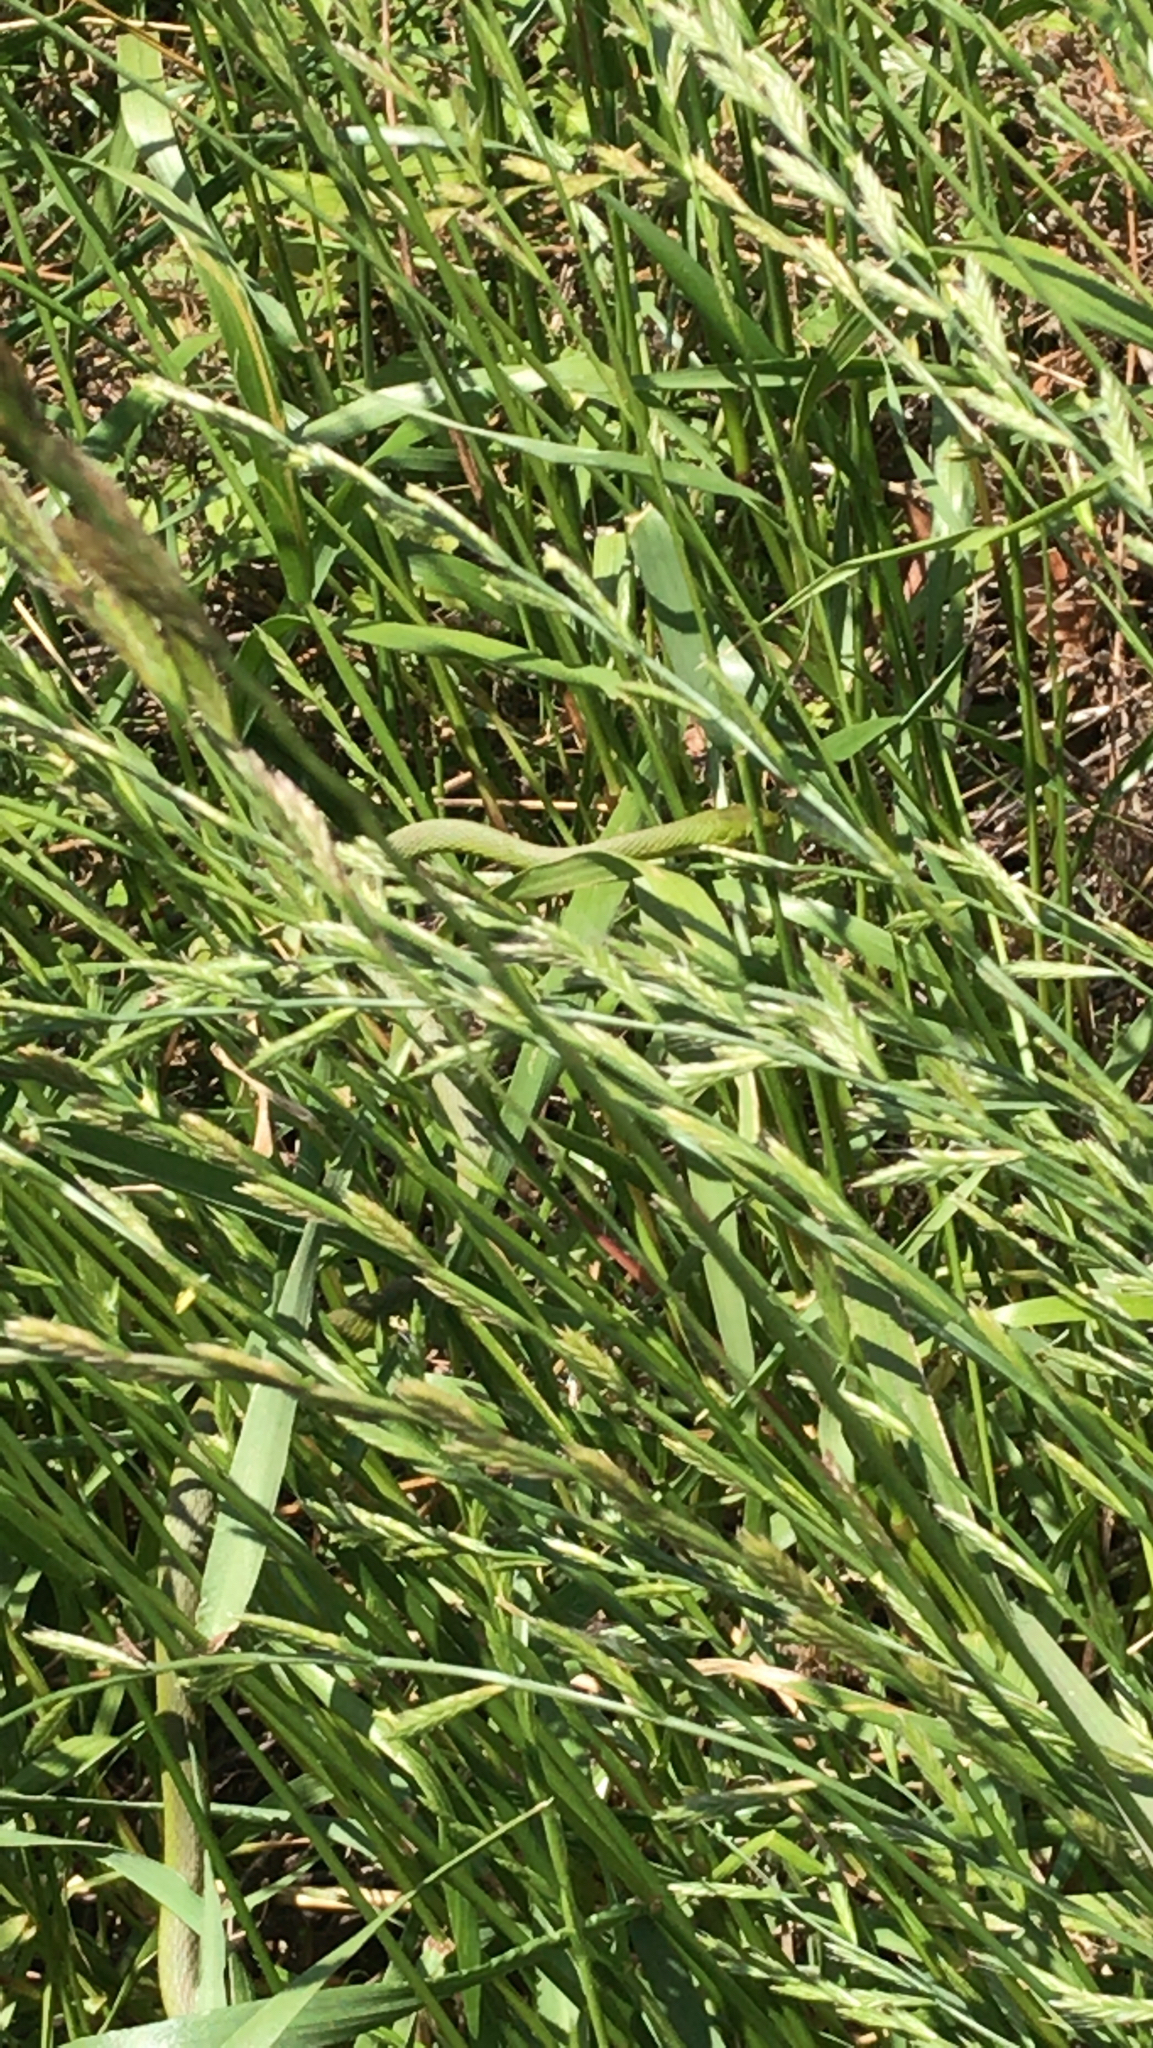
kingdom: Animalia
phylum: Chordata
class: Squamata
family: Colubridae
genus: Opheodrys
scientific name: Opheodrys aestivus
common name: Rough greensnake
